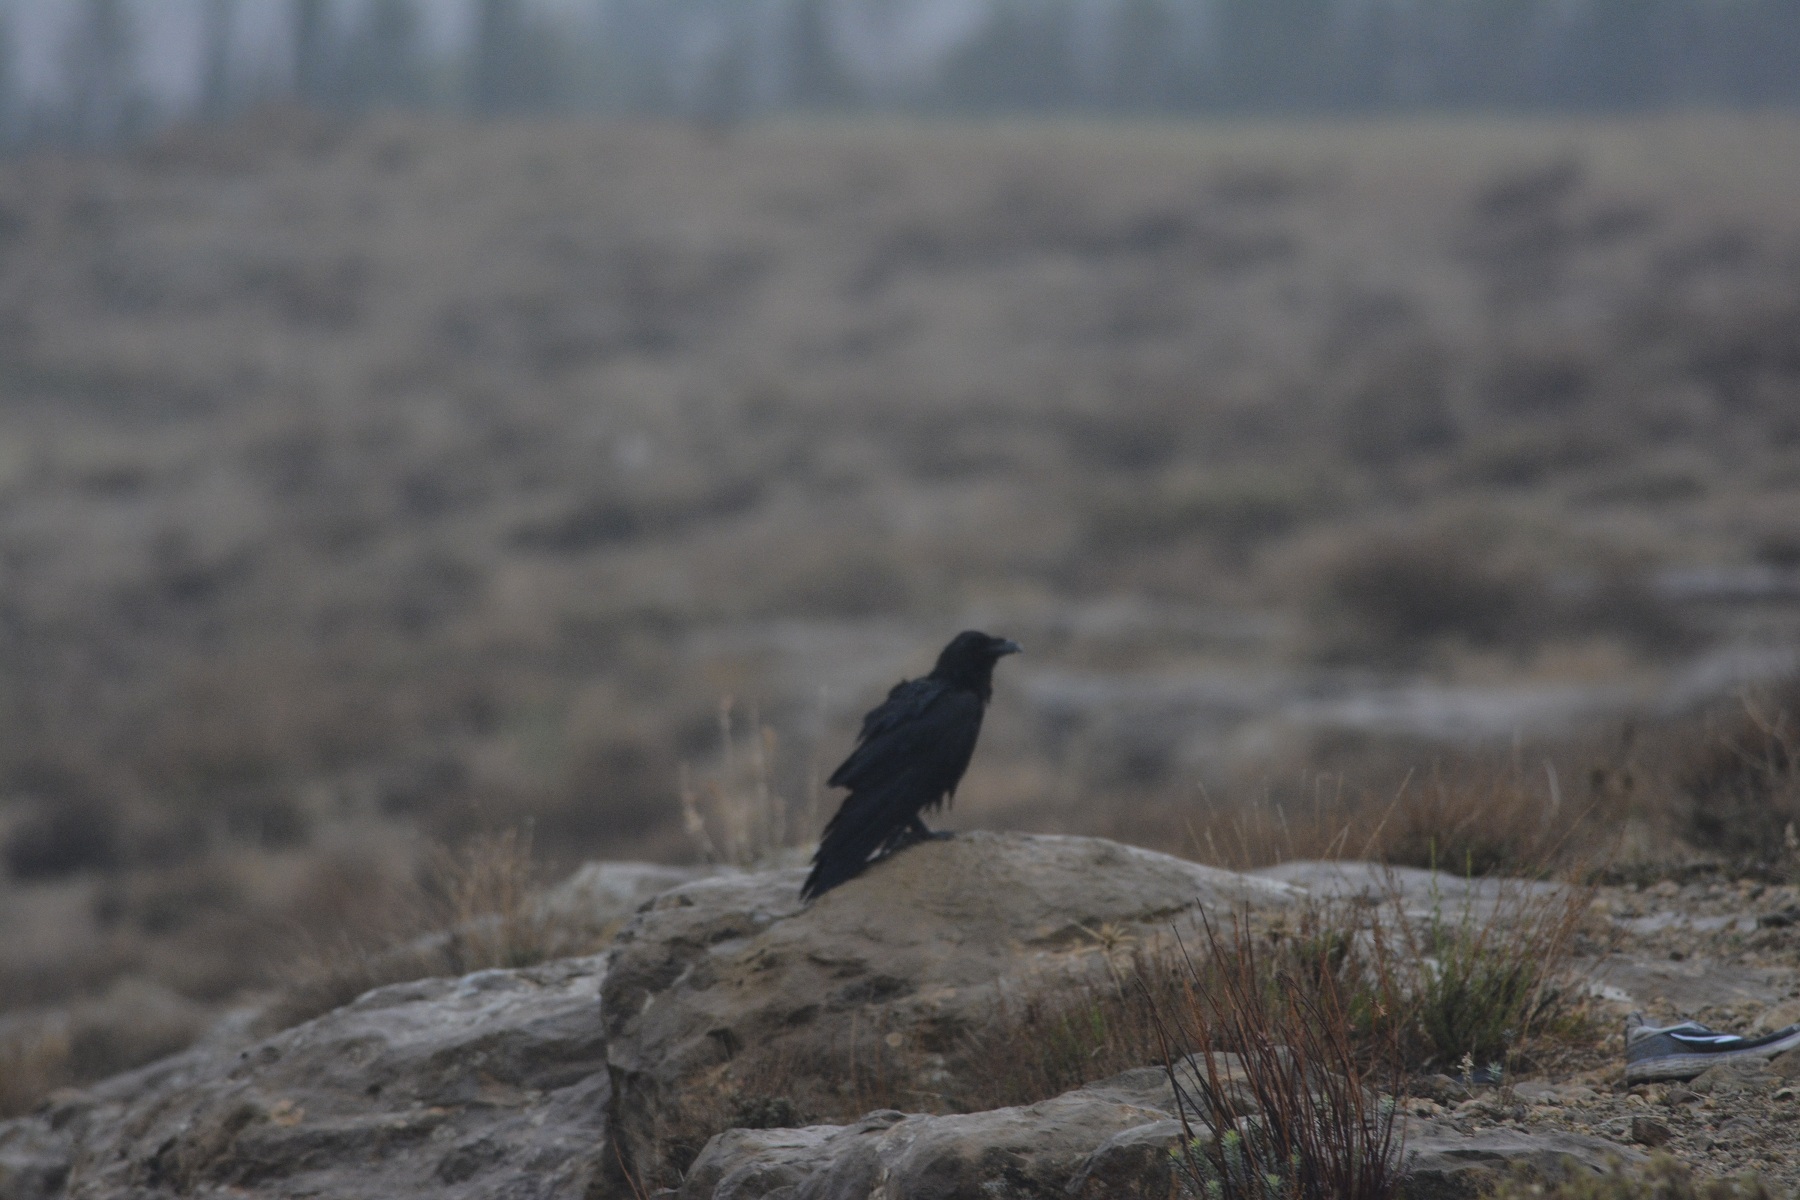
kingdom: Animalia
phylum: Chordata
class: Aves
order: Passeriformes
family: Corvidae
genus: Corvus
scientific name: Corvus corax
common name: Common raven
